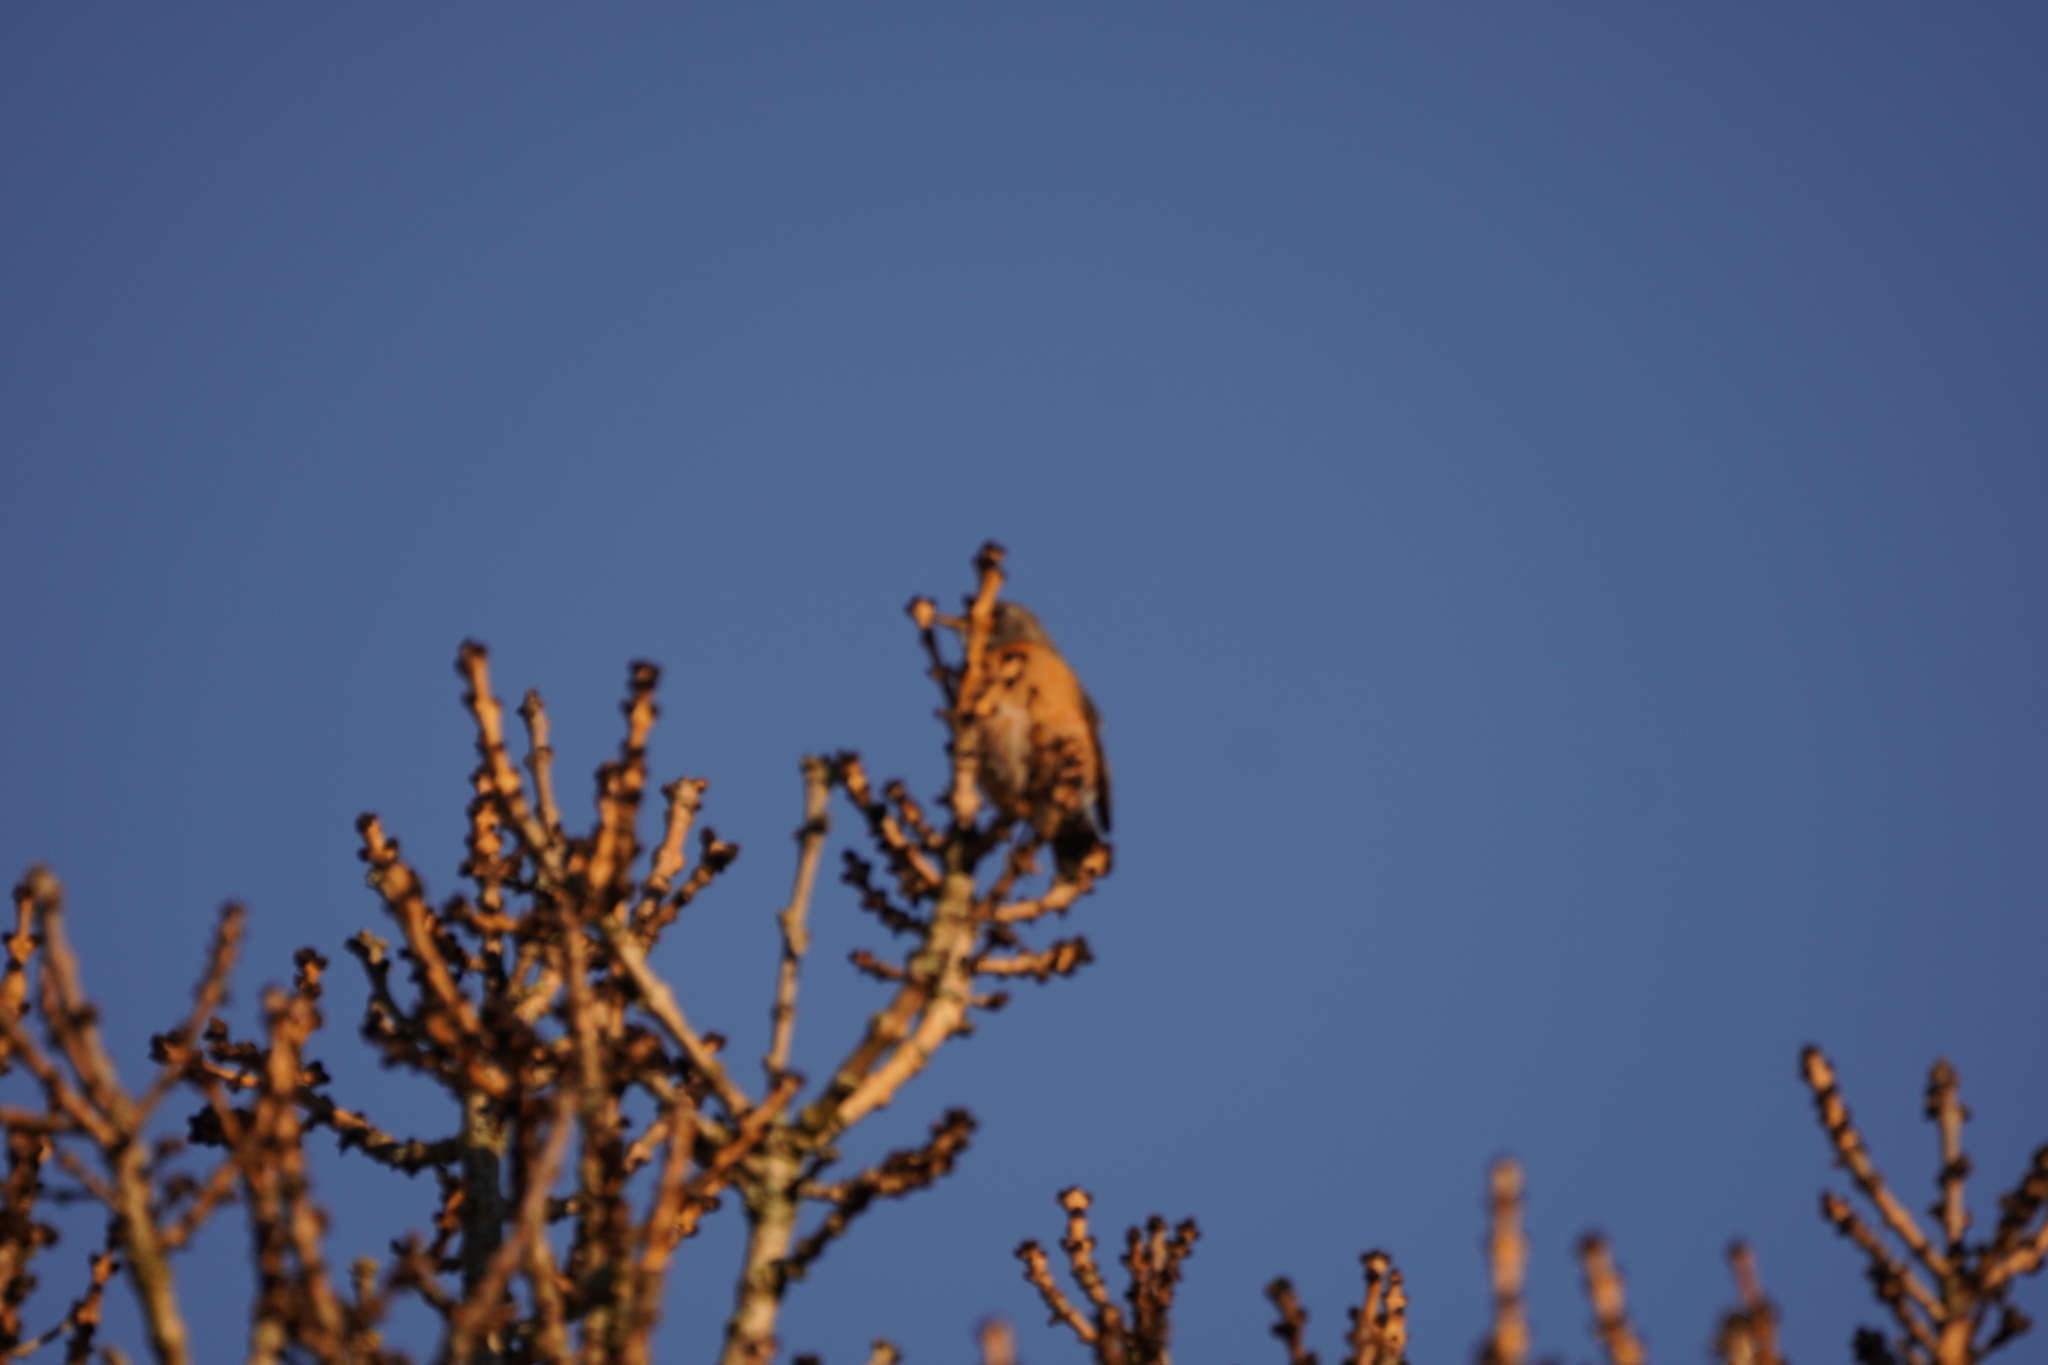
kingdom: Animalia
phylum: Chordata
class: Aves
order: Passeriformes
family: Turdidae
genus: Turdus
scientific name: Turdus migratorius
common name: American robin
